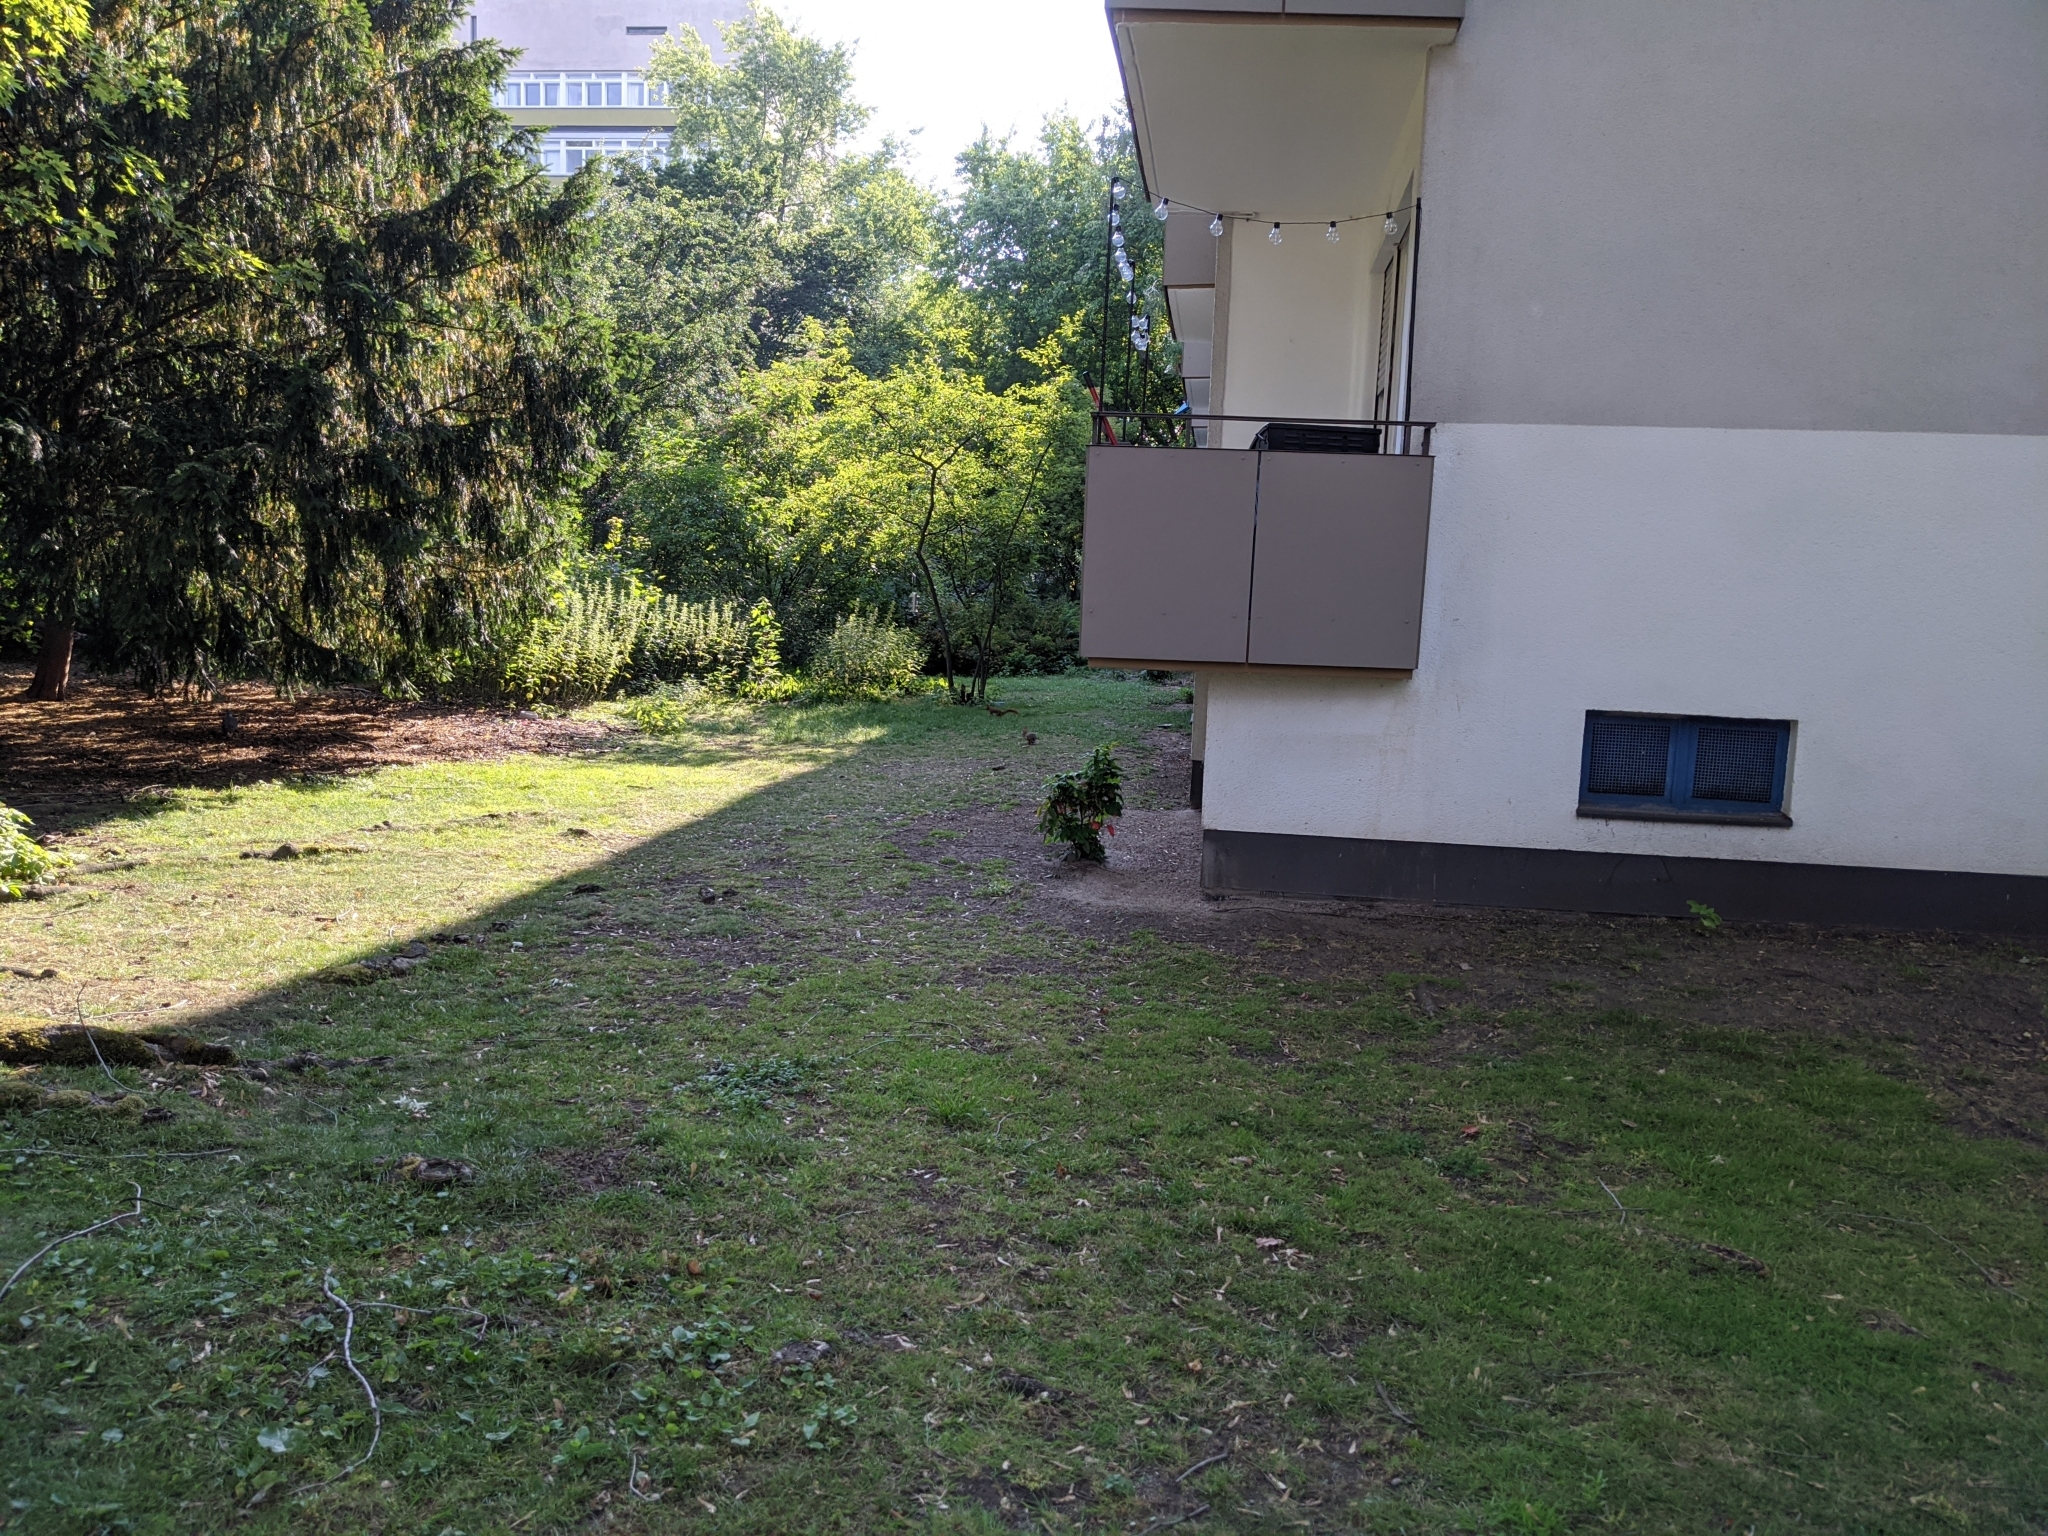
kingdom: Animalia
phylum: Chordata
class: Mammalia
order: Rodentia
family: Sciuridae
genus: Sciurus
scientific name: Sciurus vulgaris
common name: Eurasian red squirrel
